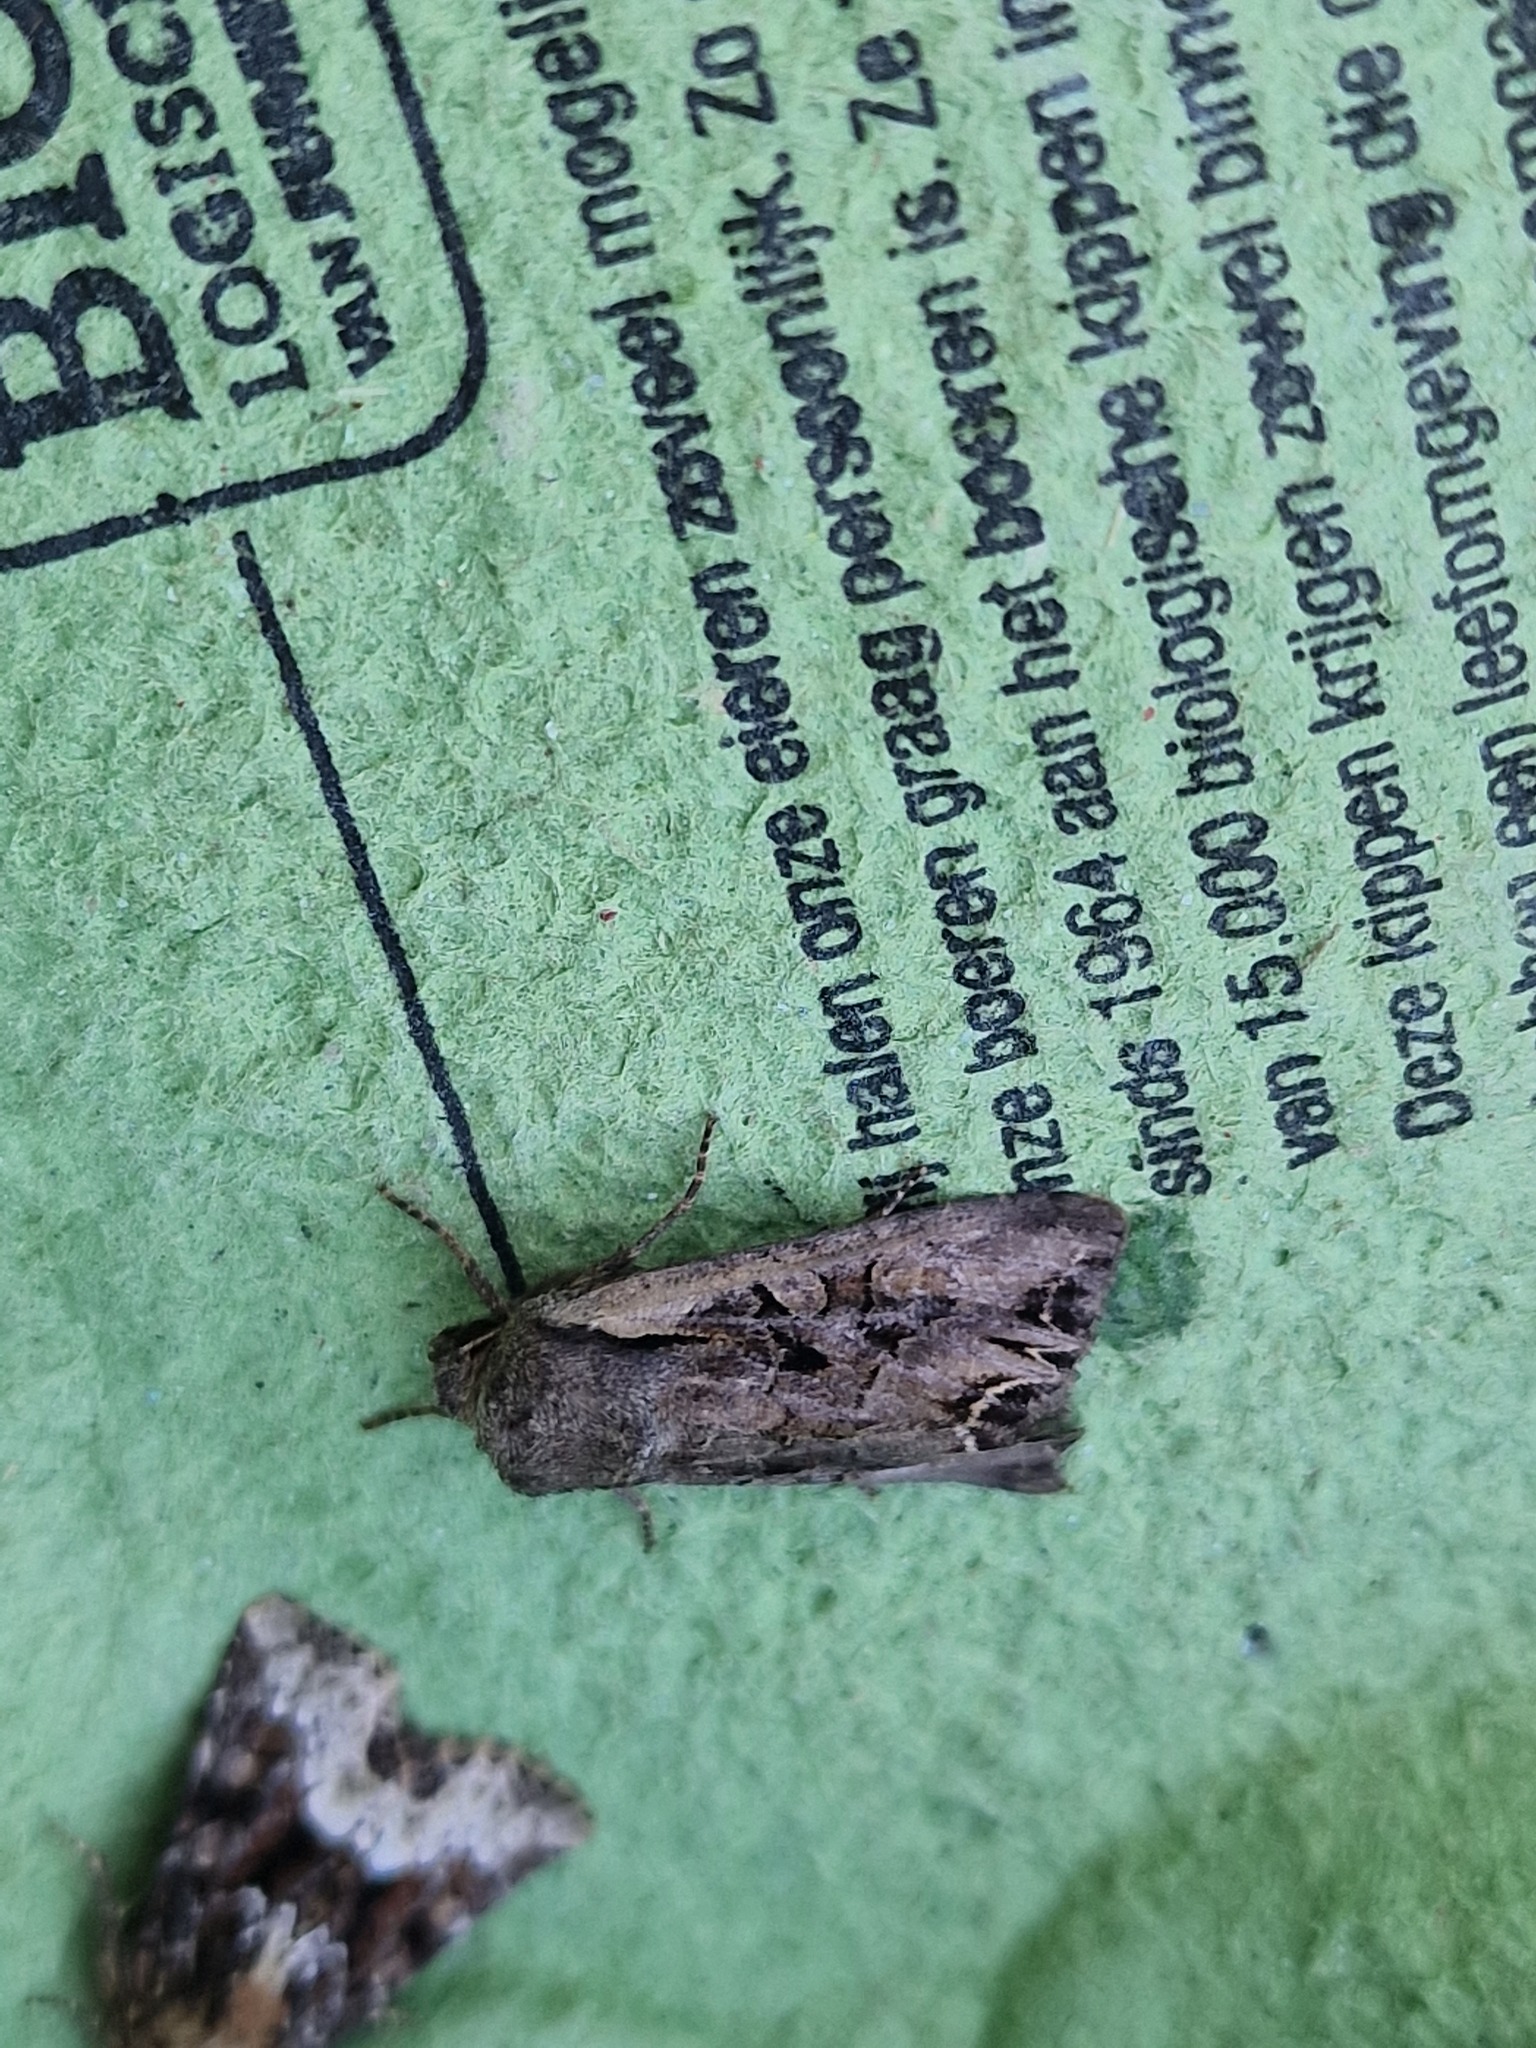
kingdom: Animalia
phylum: Arthropoda
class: Insecta
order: Lepidoptera
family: Noctuidae
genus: Lacanobia
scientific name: Lacanobia suasa
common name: Dog's tooth
